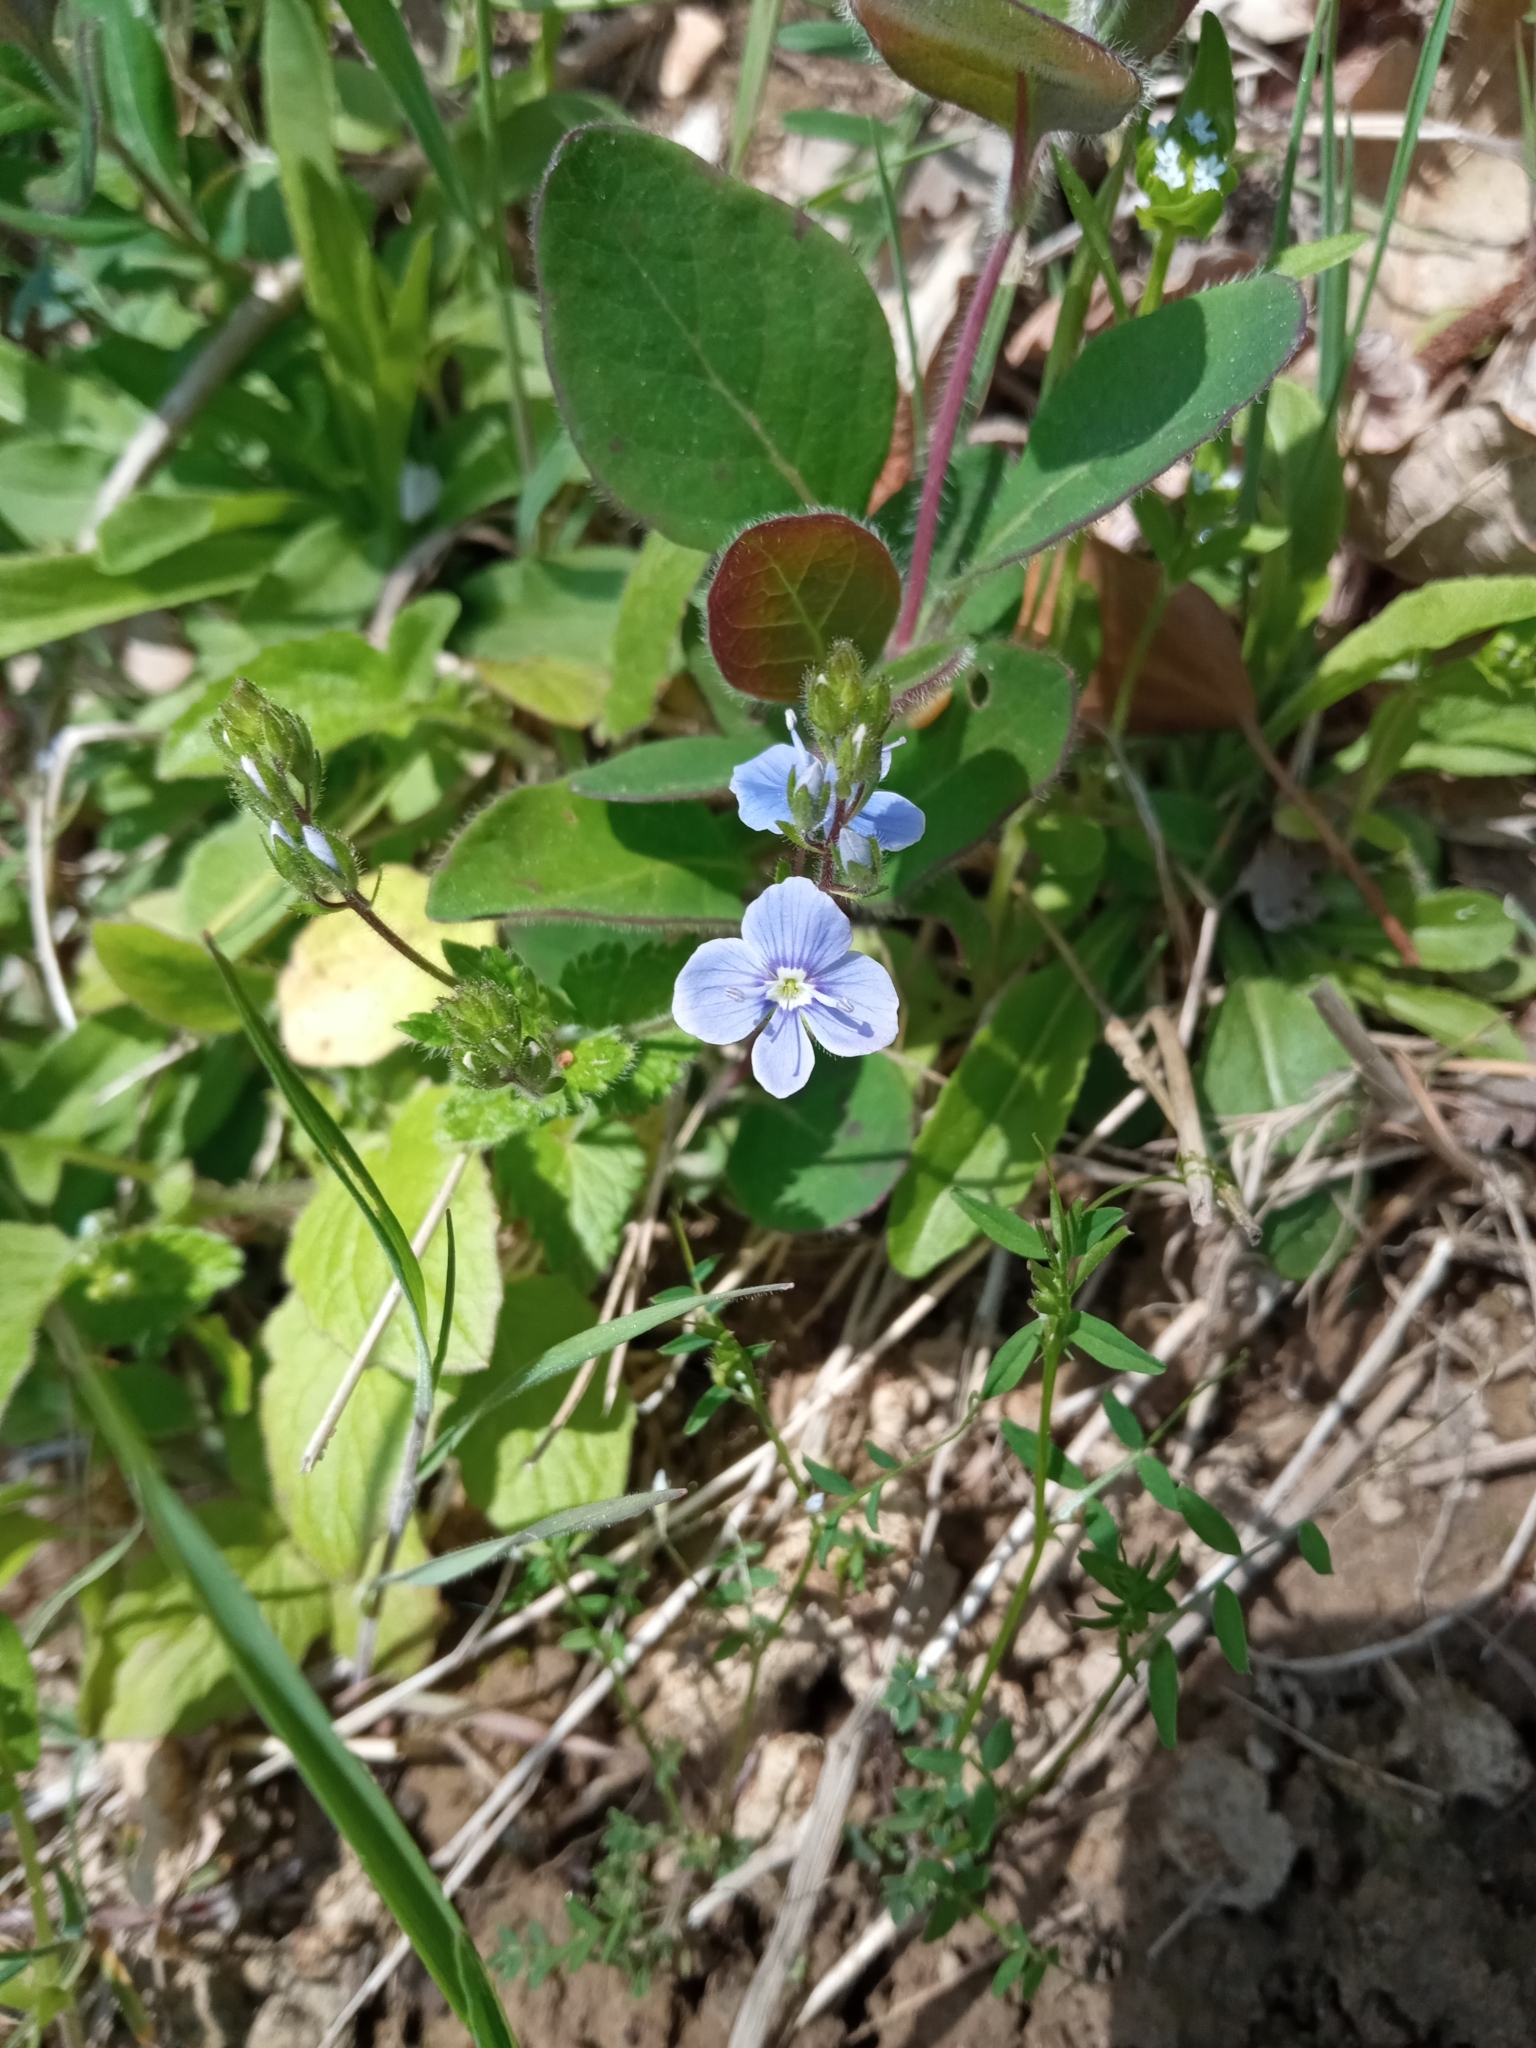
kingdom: Plantae
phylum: Tracheophyta
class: Magnoliopsida
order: Lamiales
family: Plantaginaceae
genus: Veronica
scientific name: Veronica chamaedrys
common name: Germander speedwell
